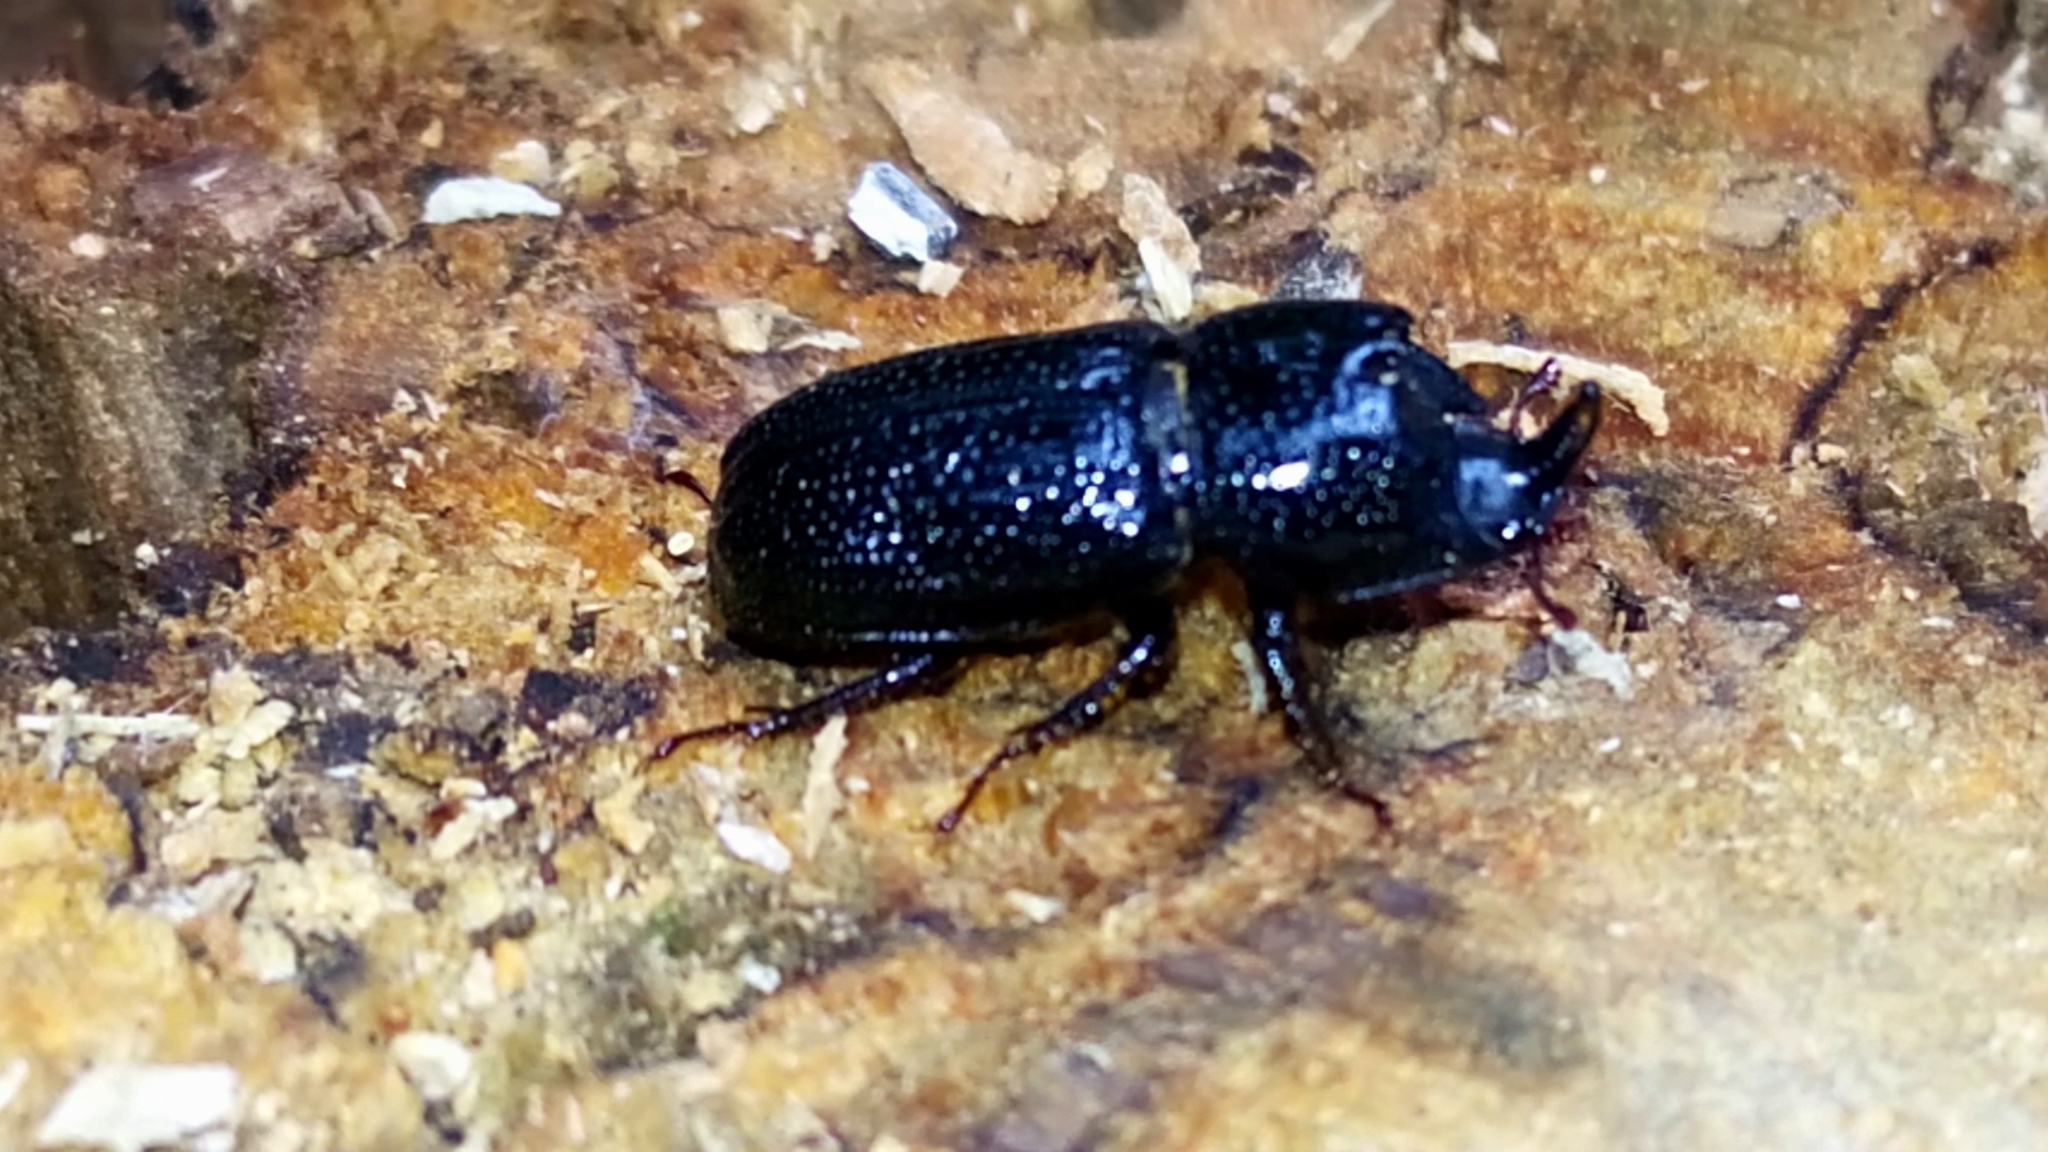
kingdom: Animalia
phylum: Arthropoda
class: Insecta
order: Coleoptera
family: Lucanidae
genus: Sinodendron
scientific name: Sinodendron cylindricum
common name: Rhinoceros beetle
